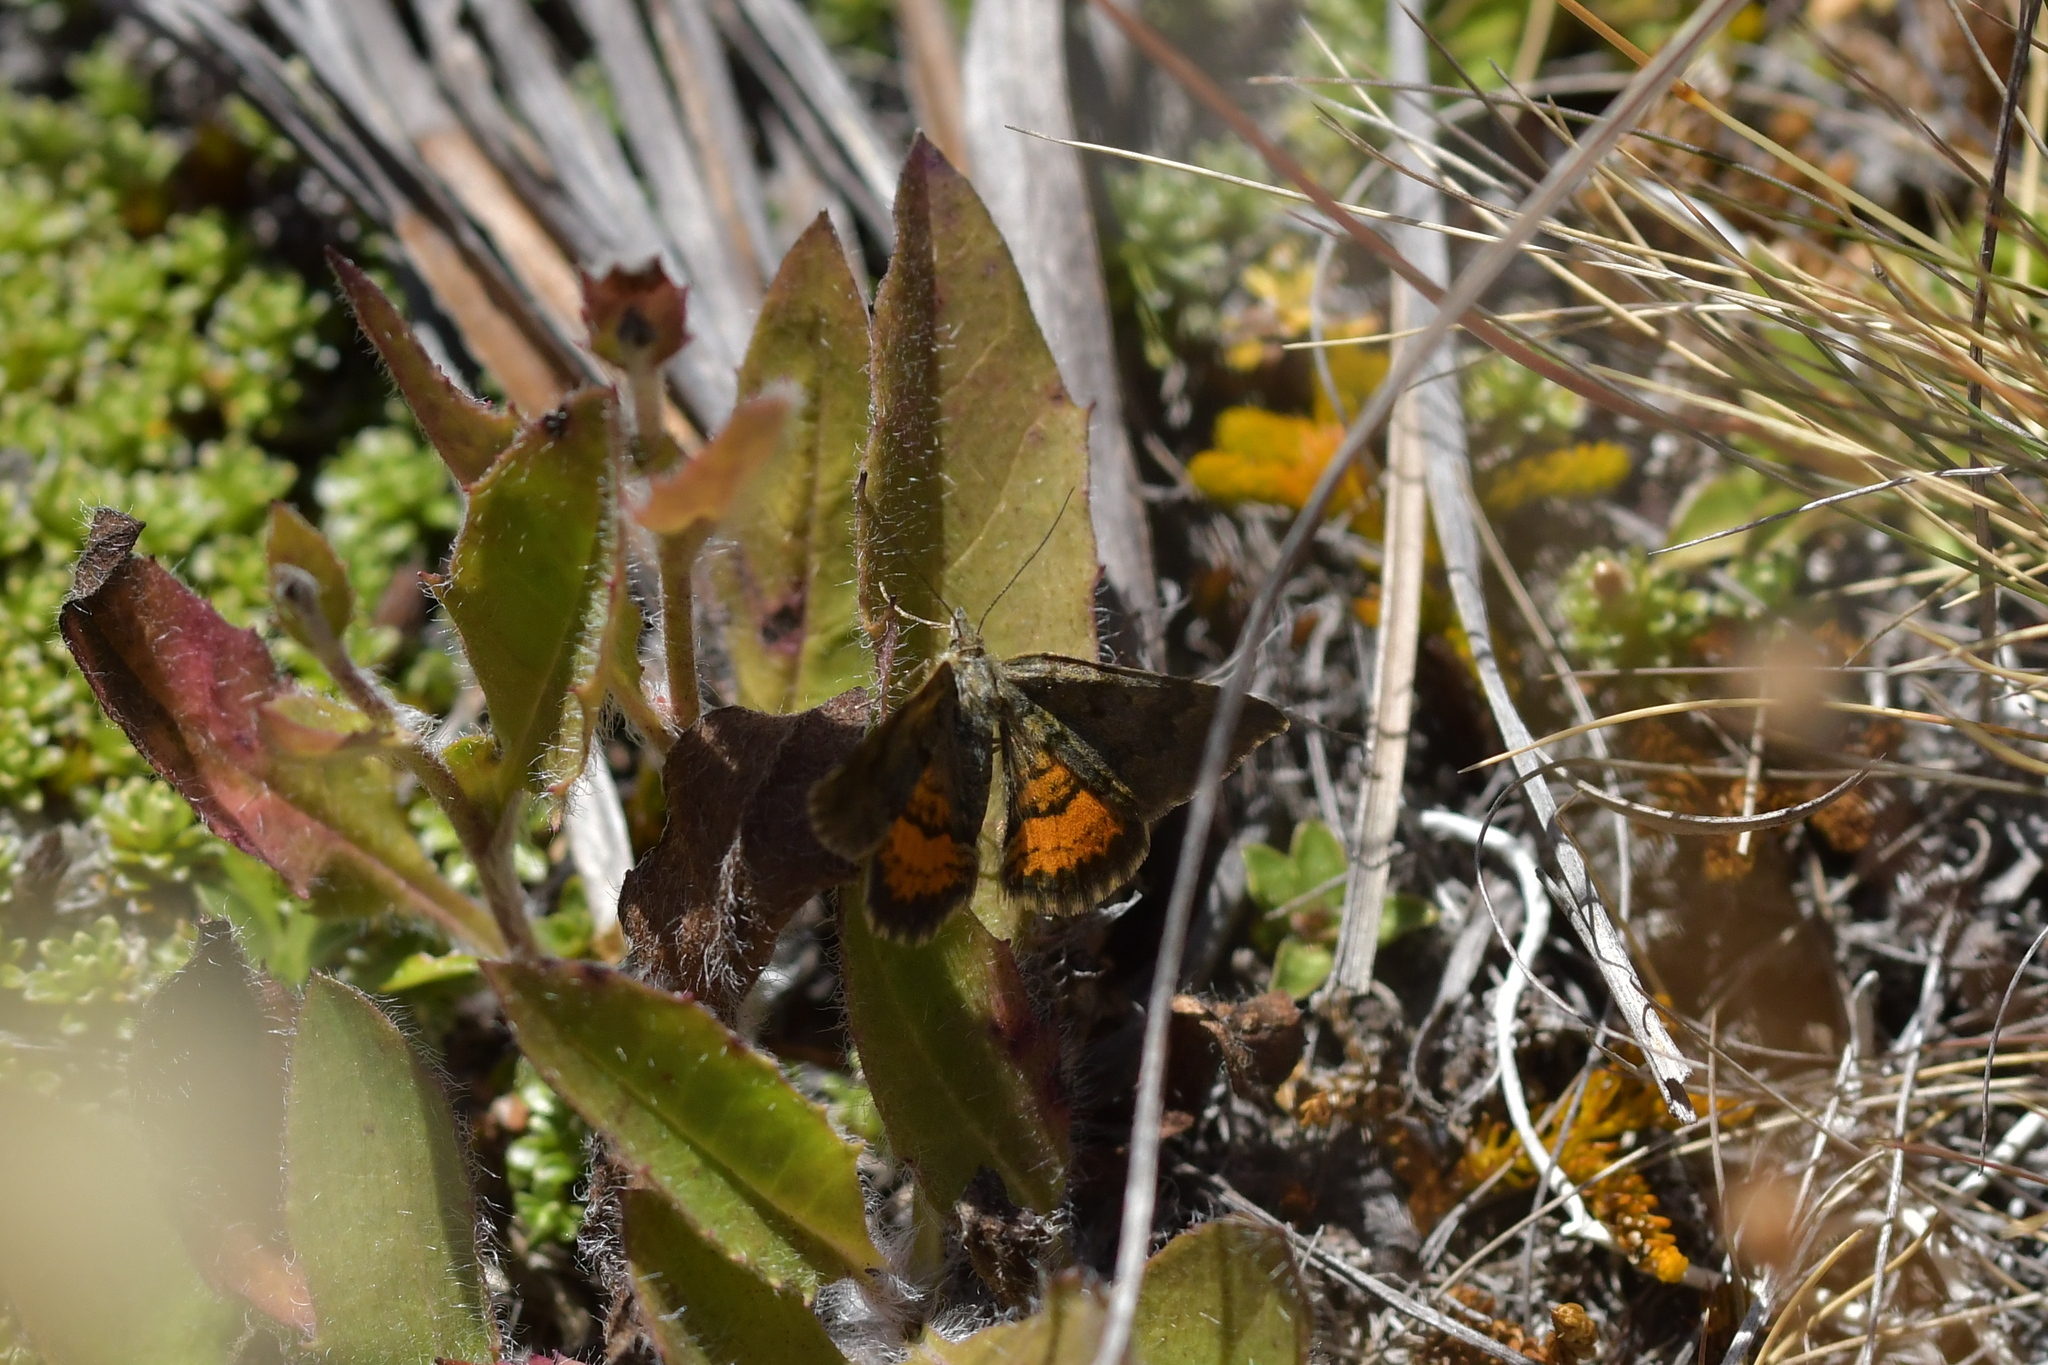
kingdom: Animalia
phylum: Arthropoda
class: Insecta
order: Lepidoptera
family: Geometridae
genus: Paranotoreas
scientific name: Paranotoreas brephosata
